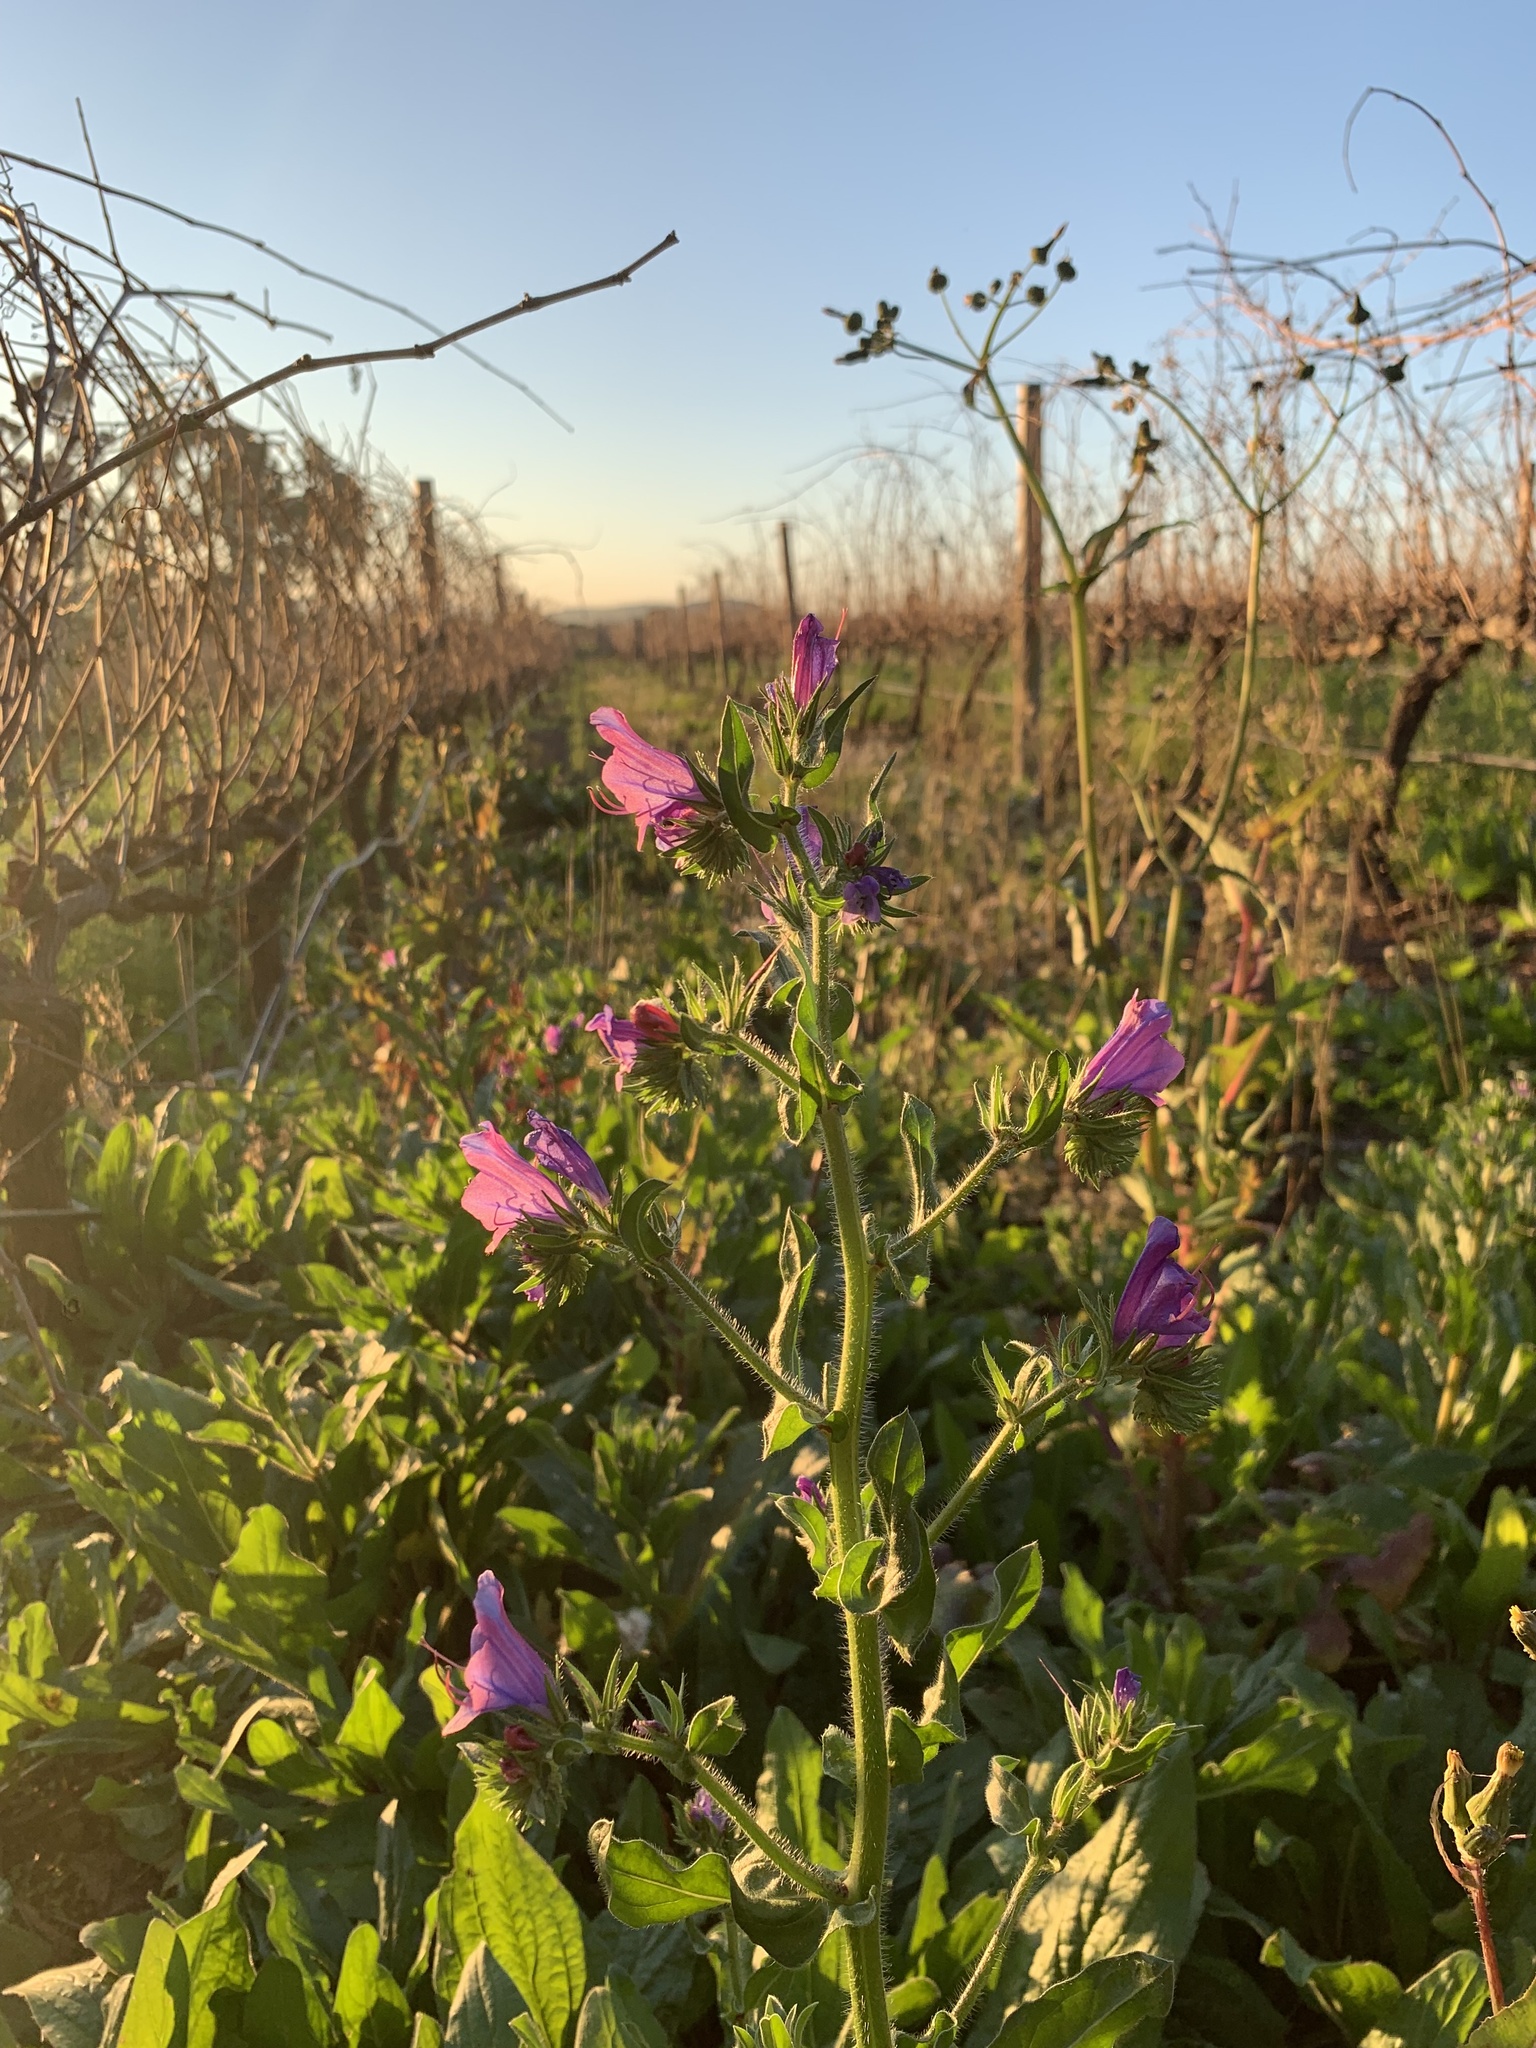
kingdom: Plantae
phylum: Tracheophyta
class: Magnoliopsida
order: Boraginales
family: Boraginaceae
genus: Echium
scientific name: Echium plantagineum
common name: Purple viper's-bugloss
